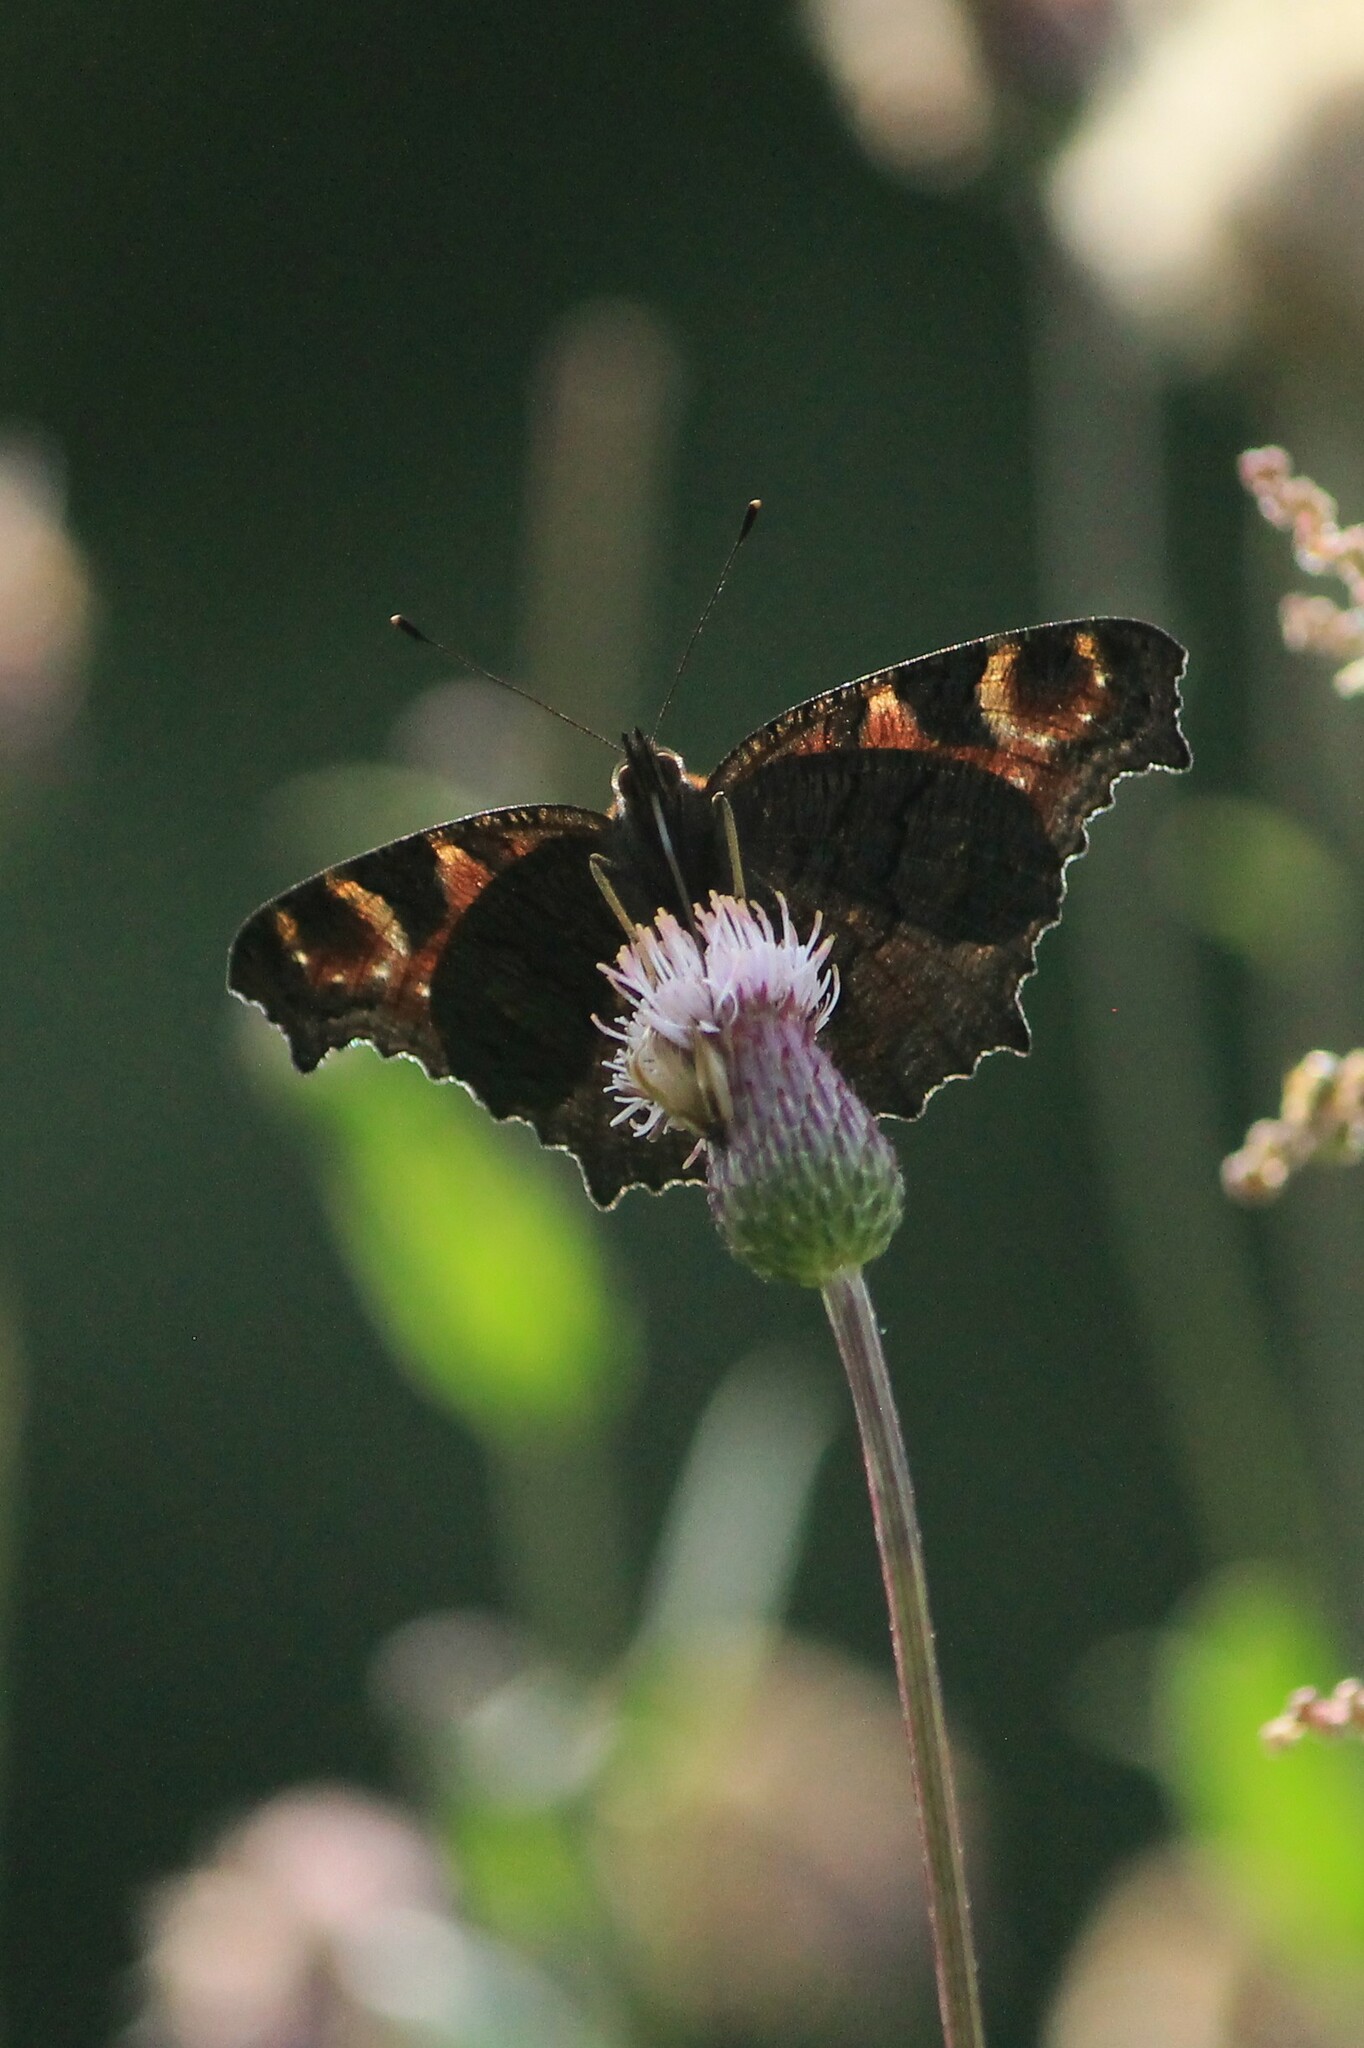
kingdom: Animalia
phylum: Arthropoda
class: Insecta
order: Lepidoptera
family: Nymphalidae
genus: Aglais
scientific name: Aglais io
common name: Peacock
